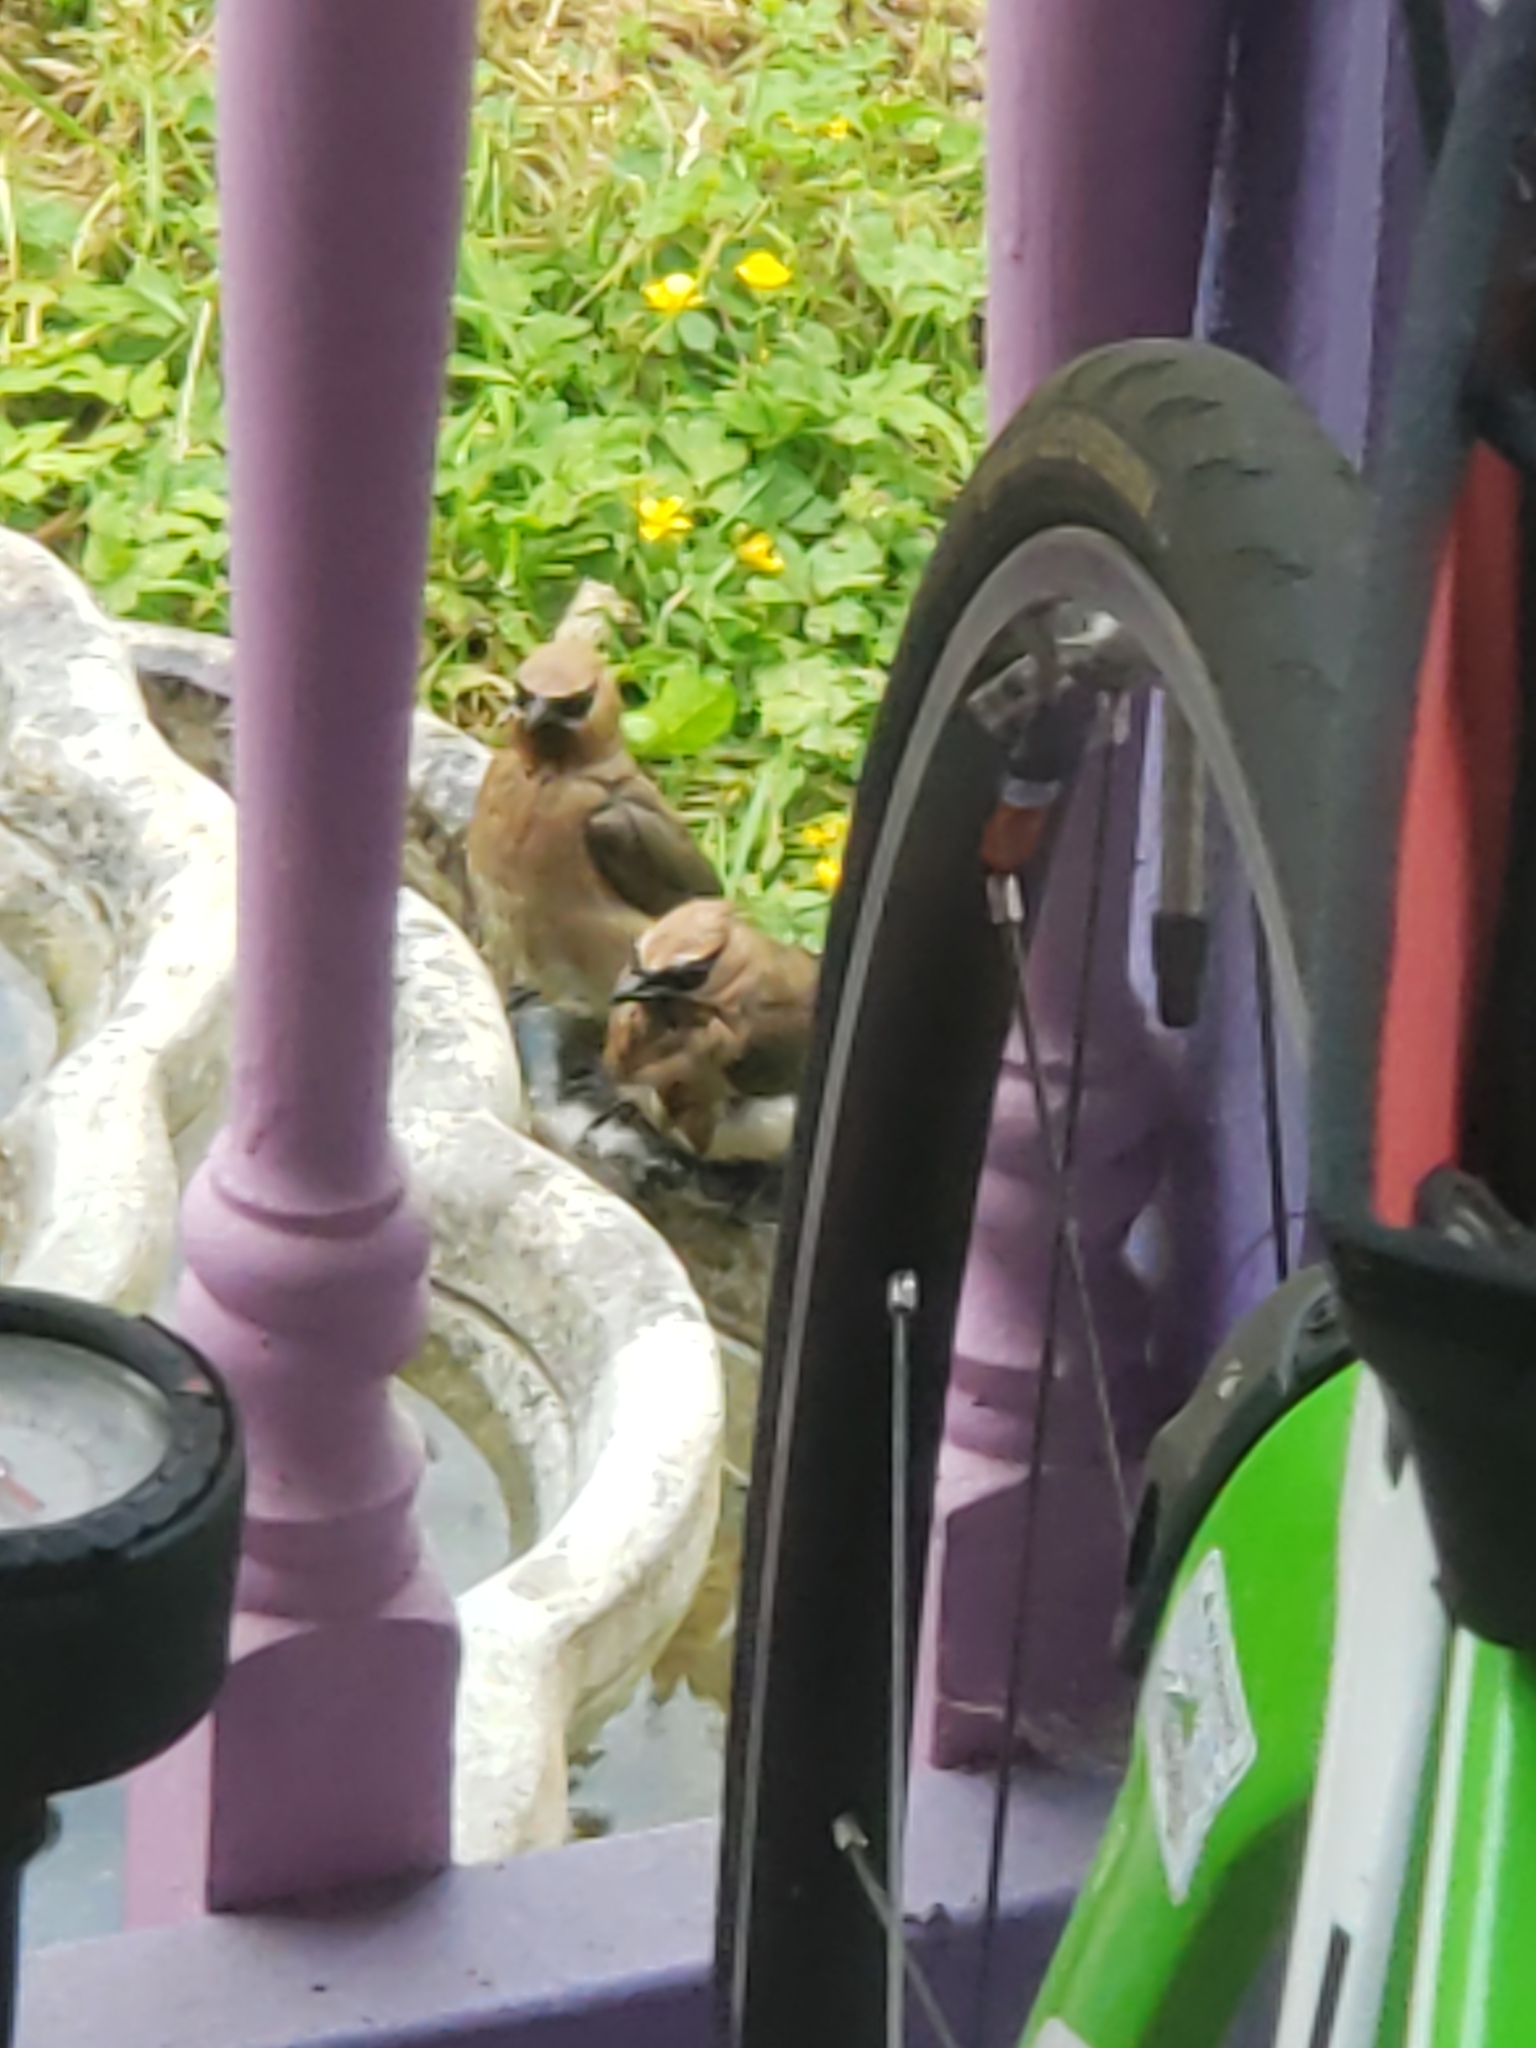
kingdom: Animalia
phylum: Chordata
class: Aves
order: Passeriformes
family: Bombycillidae
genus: Bombycilla
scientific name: Bombycilla cedrorum
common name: Cedar waxwing
